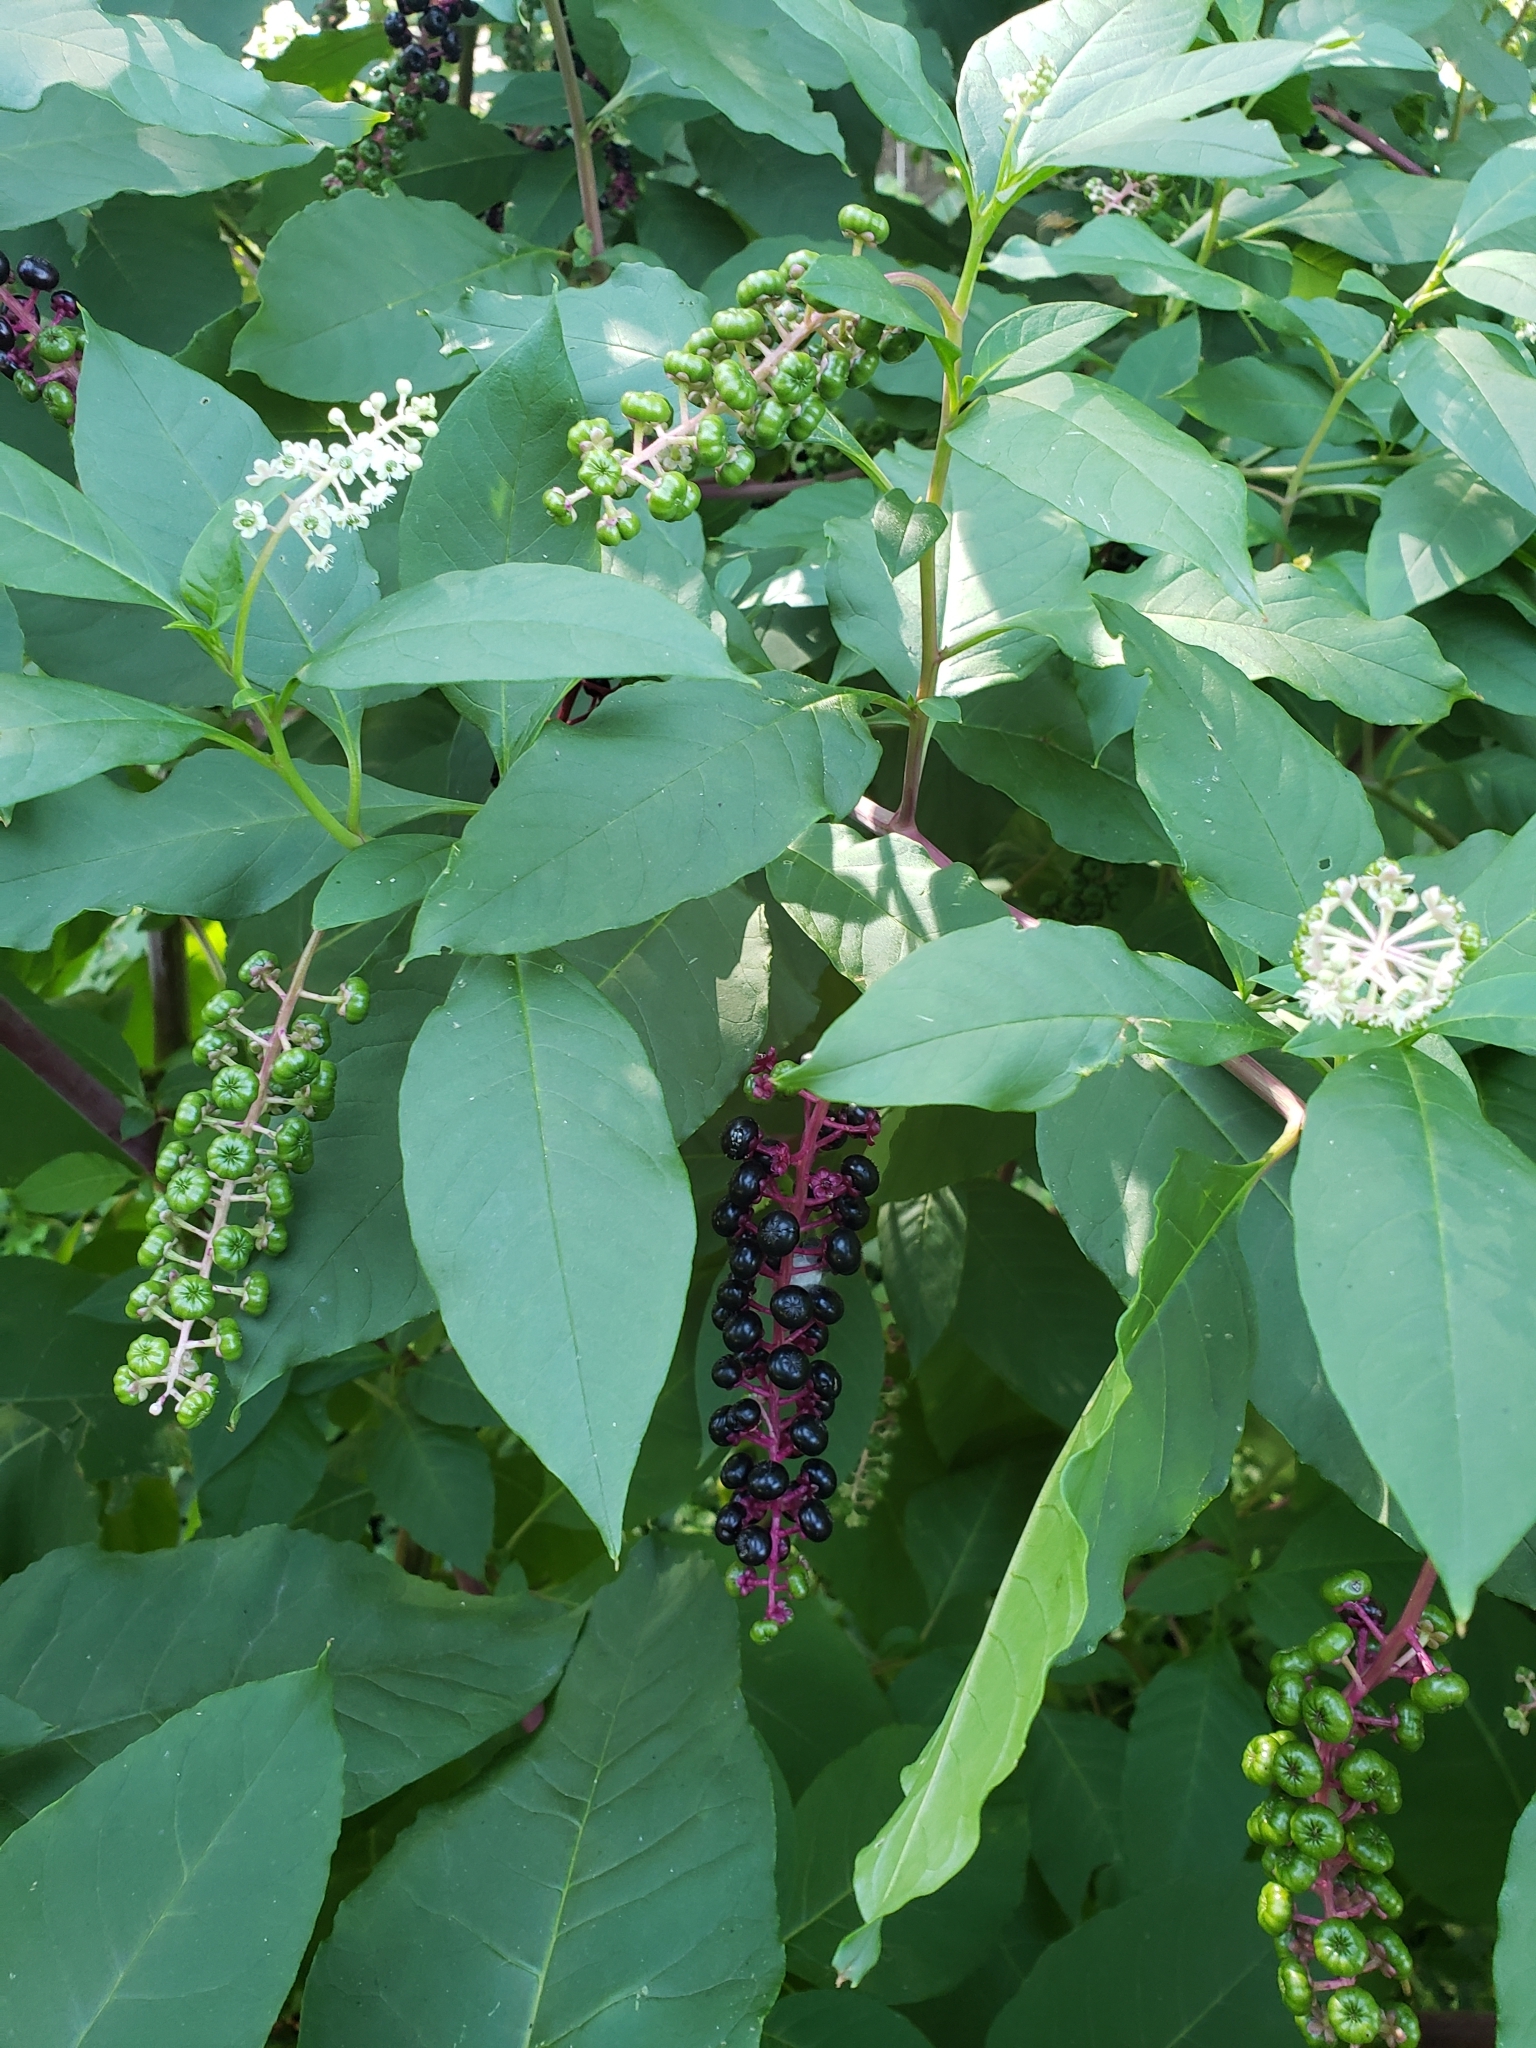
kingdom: Plantae
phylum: Tracheophyta
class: Magnoliopsida
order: Caryophyllales
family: Phytolaccaceae
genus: Phytolacca
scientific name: Phytolacca americana
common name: American pokeweed
